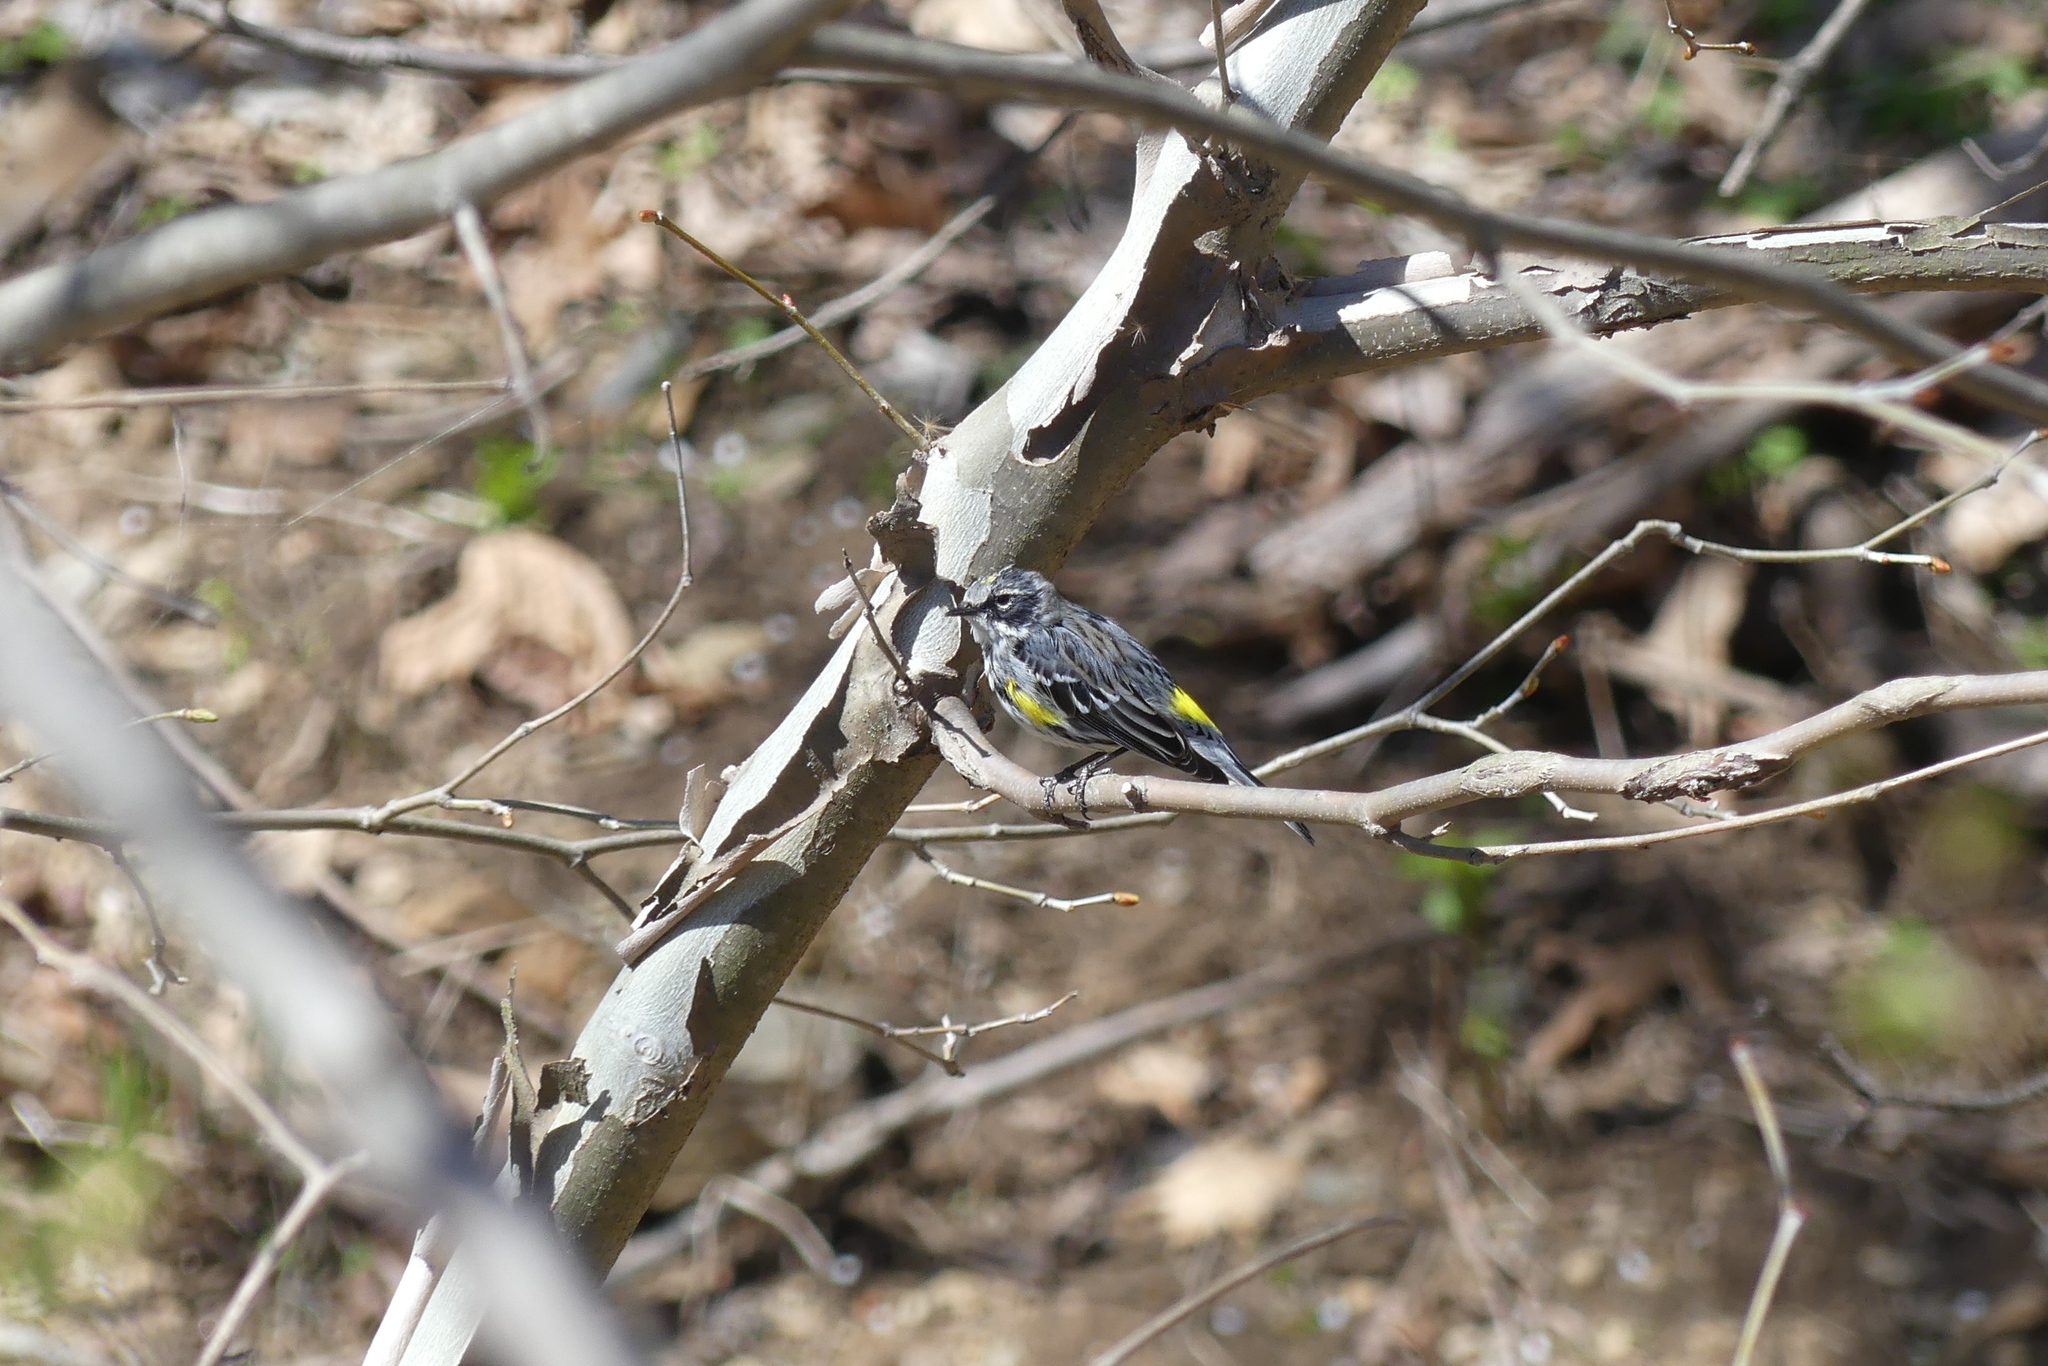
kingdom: Animalia
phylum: Chordata
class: Aves
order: Passeriformes
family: Parulidae
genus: Setophaga
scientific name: Setophaga coronata
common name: Myrtle warbler
